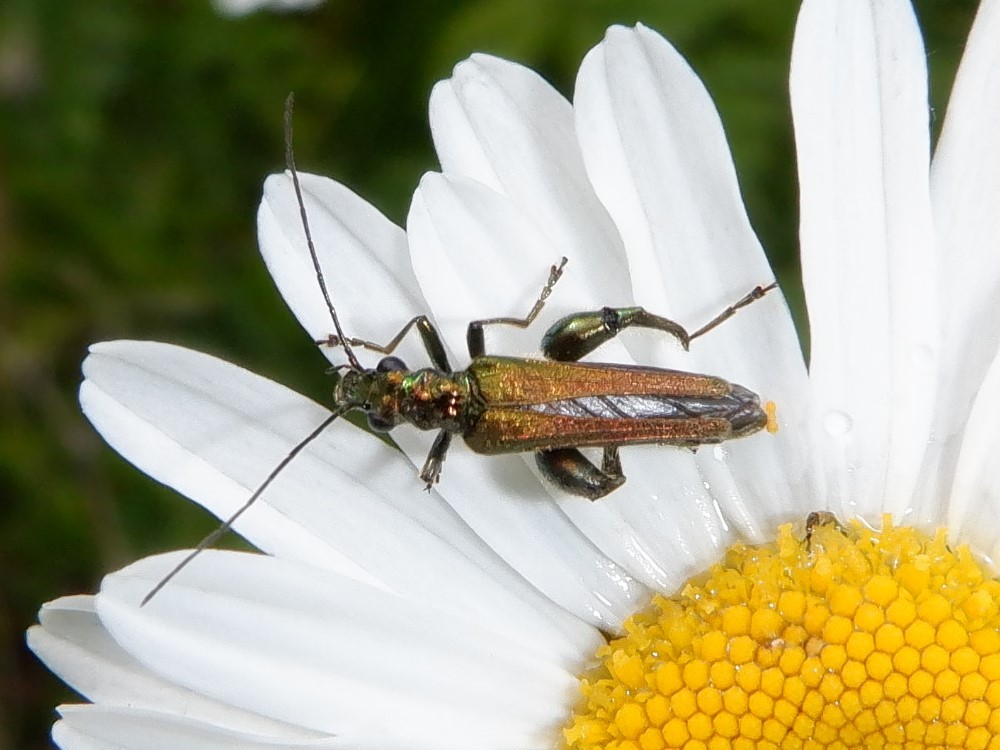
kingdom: Animalia
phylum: Arthropoda
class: Insecta
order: Coleoptera
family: Oedemeridae
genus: Oedemera
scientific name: Oedemera nobilis
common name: Swollen-thighed beetle
